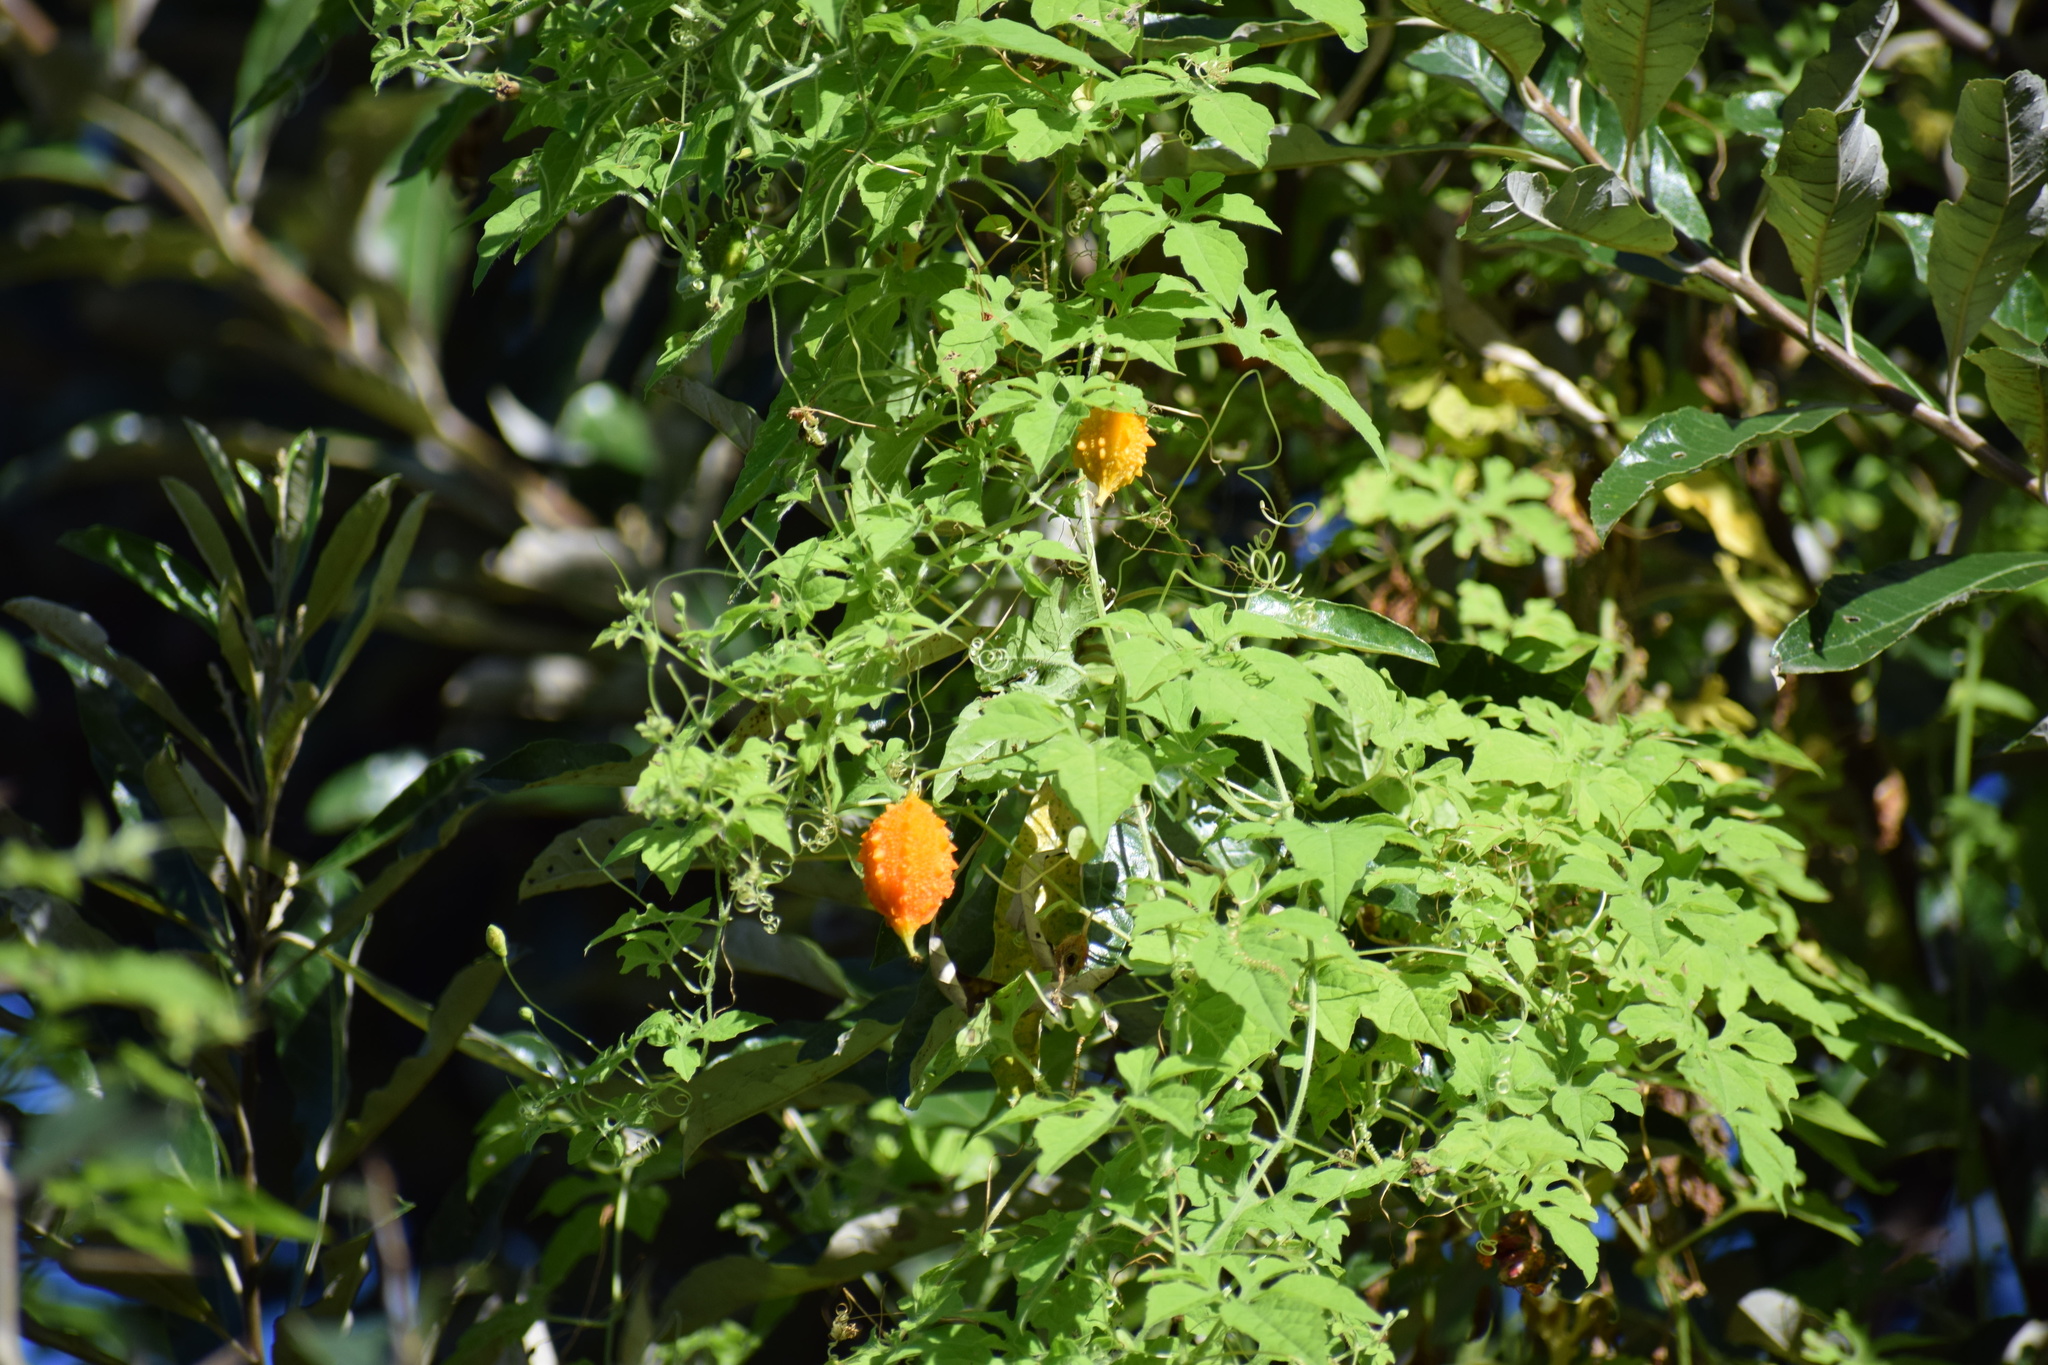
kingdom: Plantae
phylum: Tracheophyta
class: Magnoliopsida
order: Cucurbitales
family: Cucurbitaceae
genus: Momordica
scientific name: Momordica charantia
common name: Balsampear
